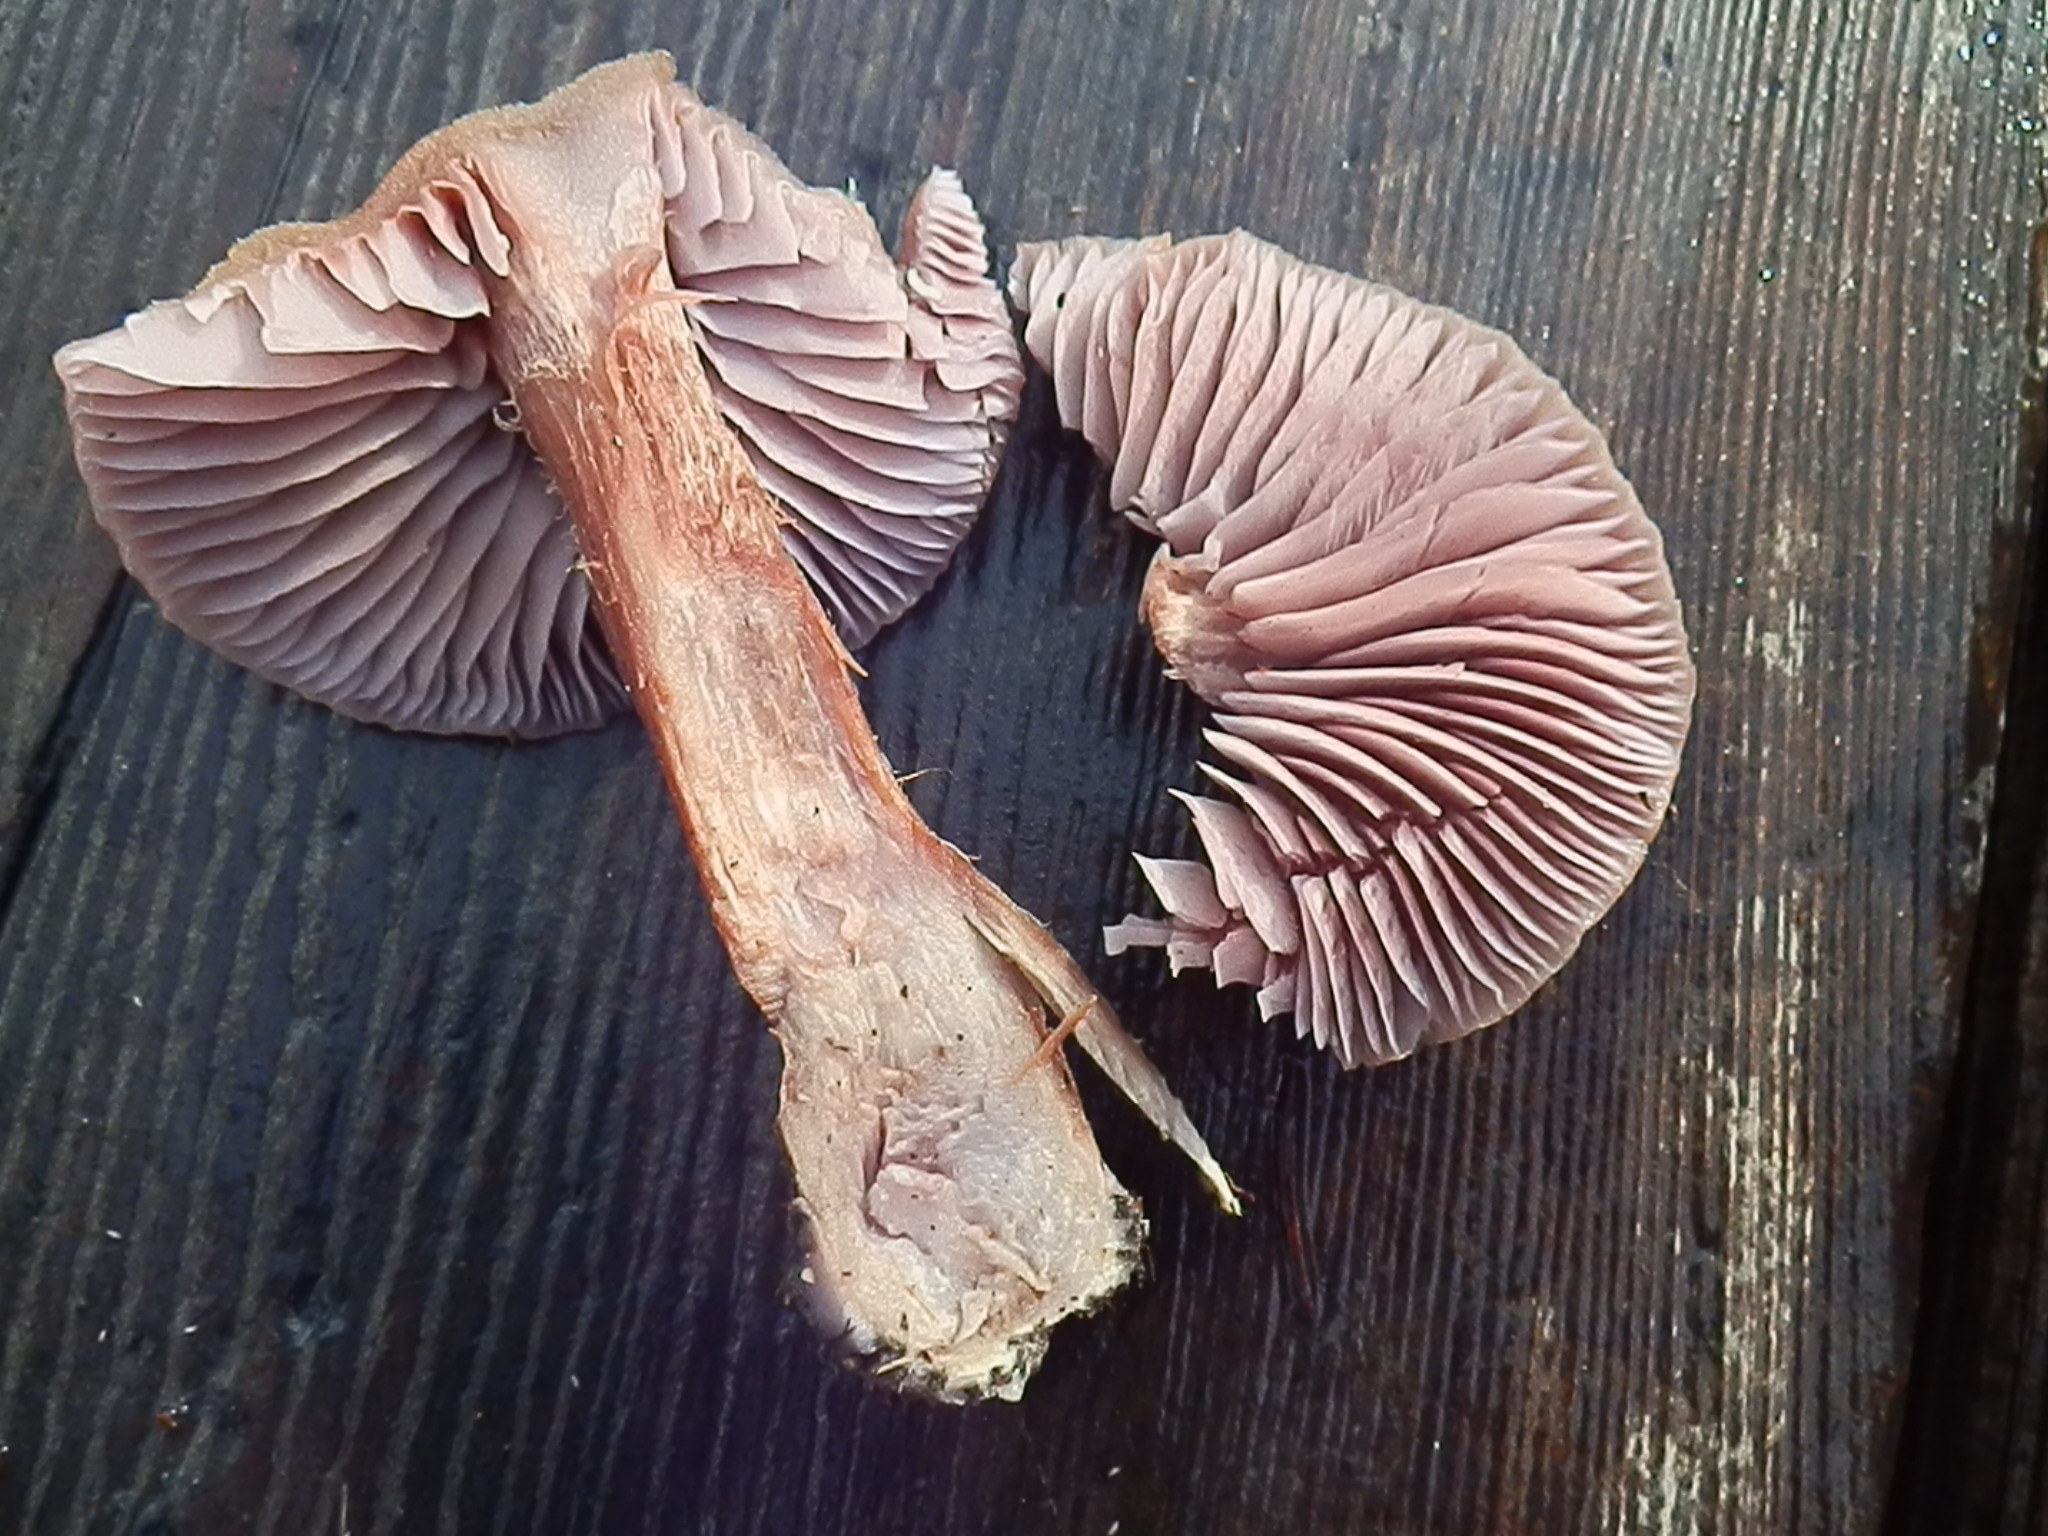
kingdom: Fungi
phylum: Basidiomycota
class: Agaricomycetes
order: Agaricales
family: Hydnangiaceae
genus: Laccaria
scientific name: Laccaria amethysteo-occidentalis
